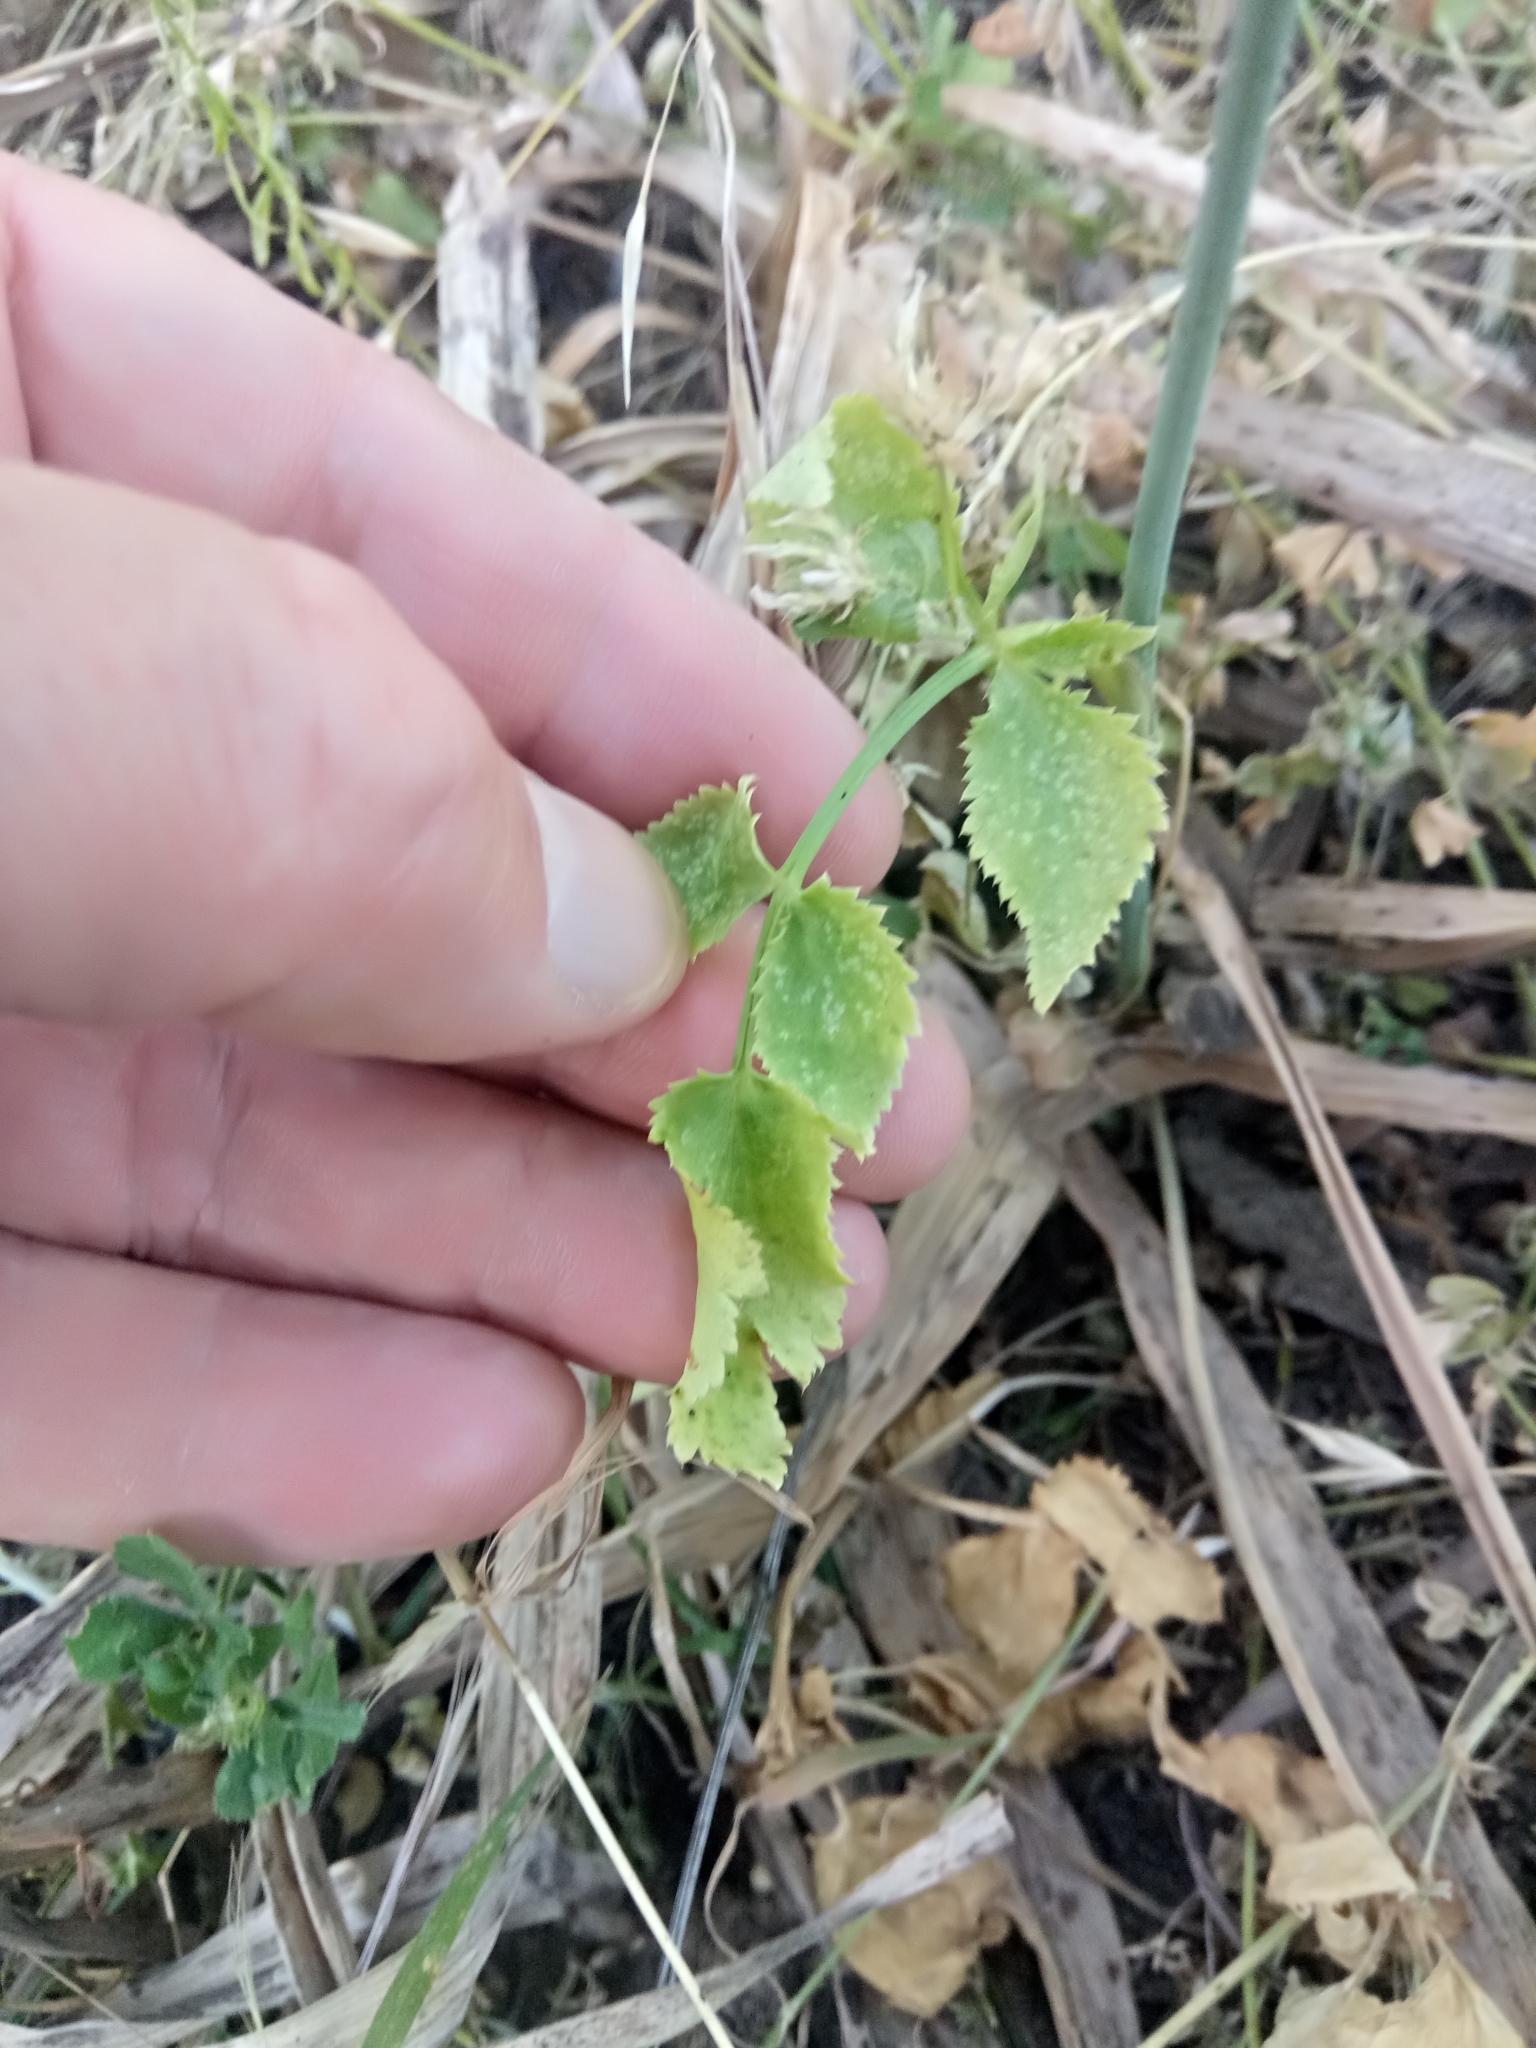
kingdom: Plantae
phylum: Tracheophyta
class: Magnoliopsida
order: Apiales
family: Apiaceae
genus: Kundmannia
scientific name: Kundmannia sicula
